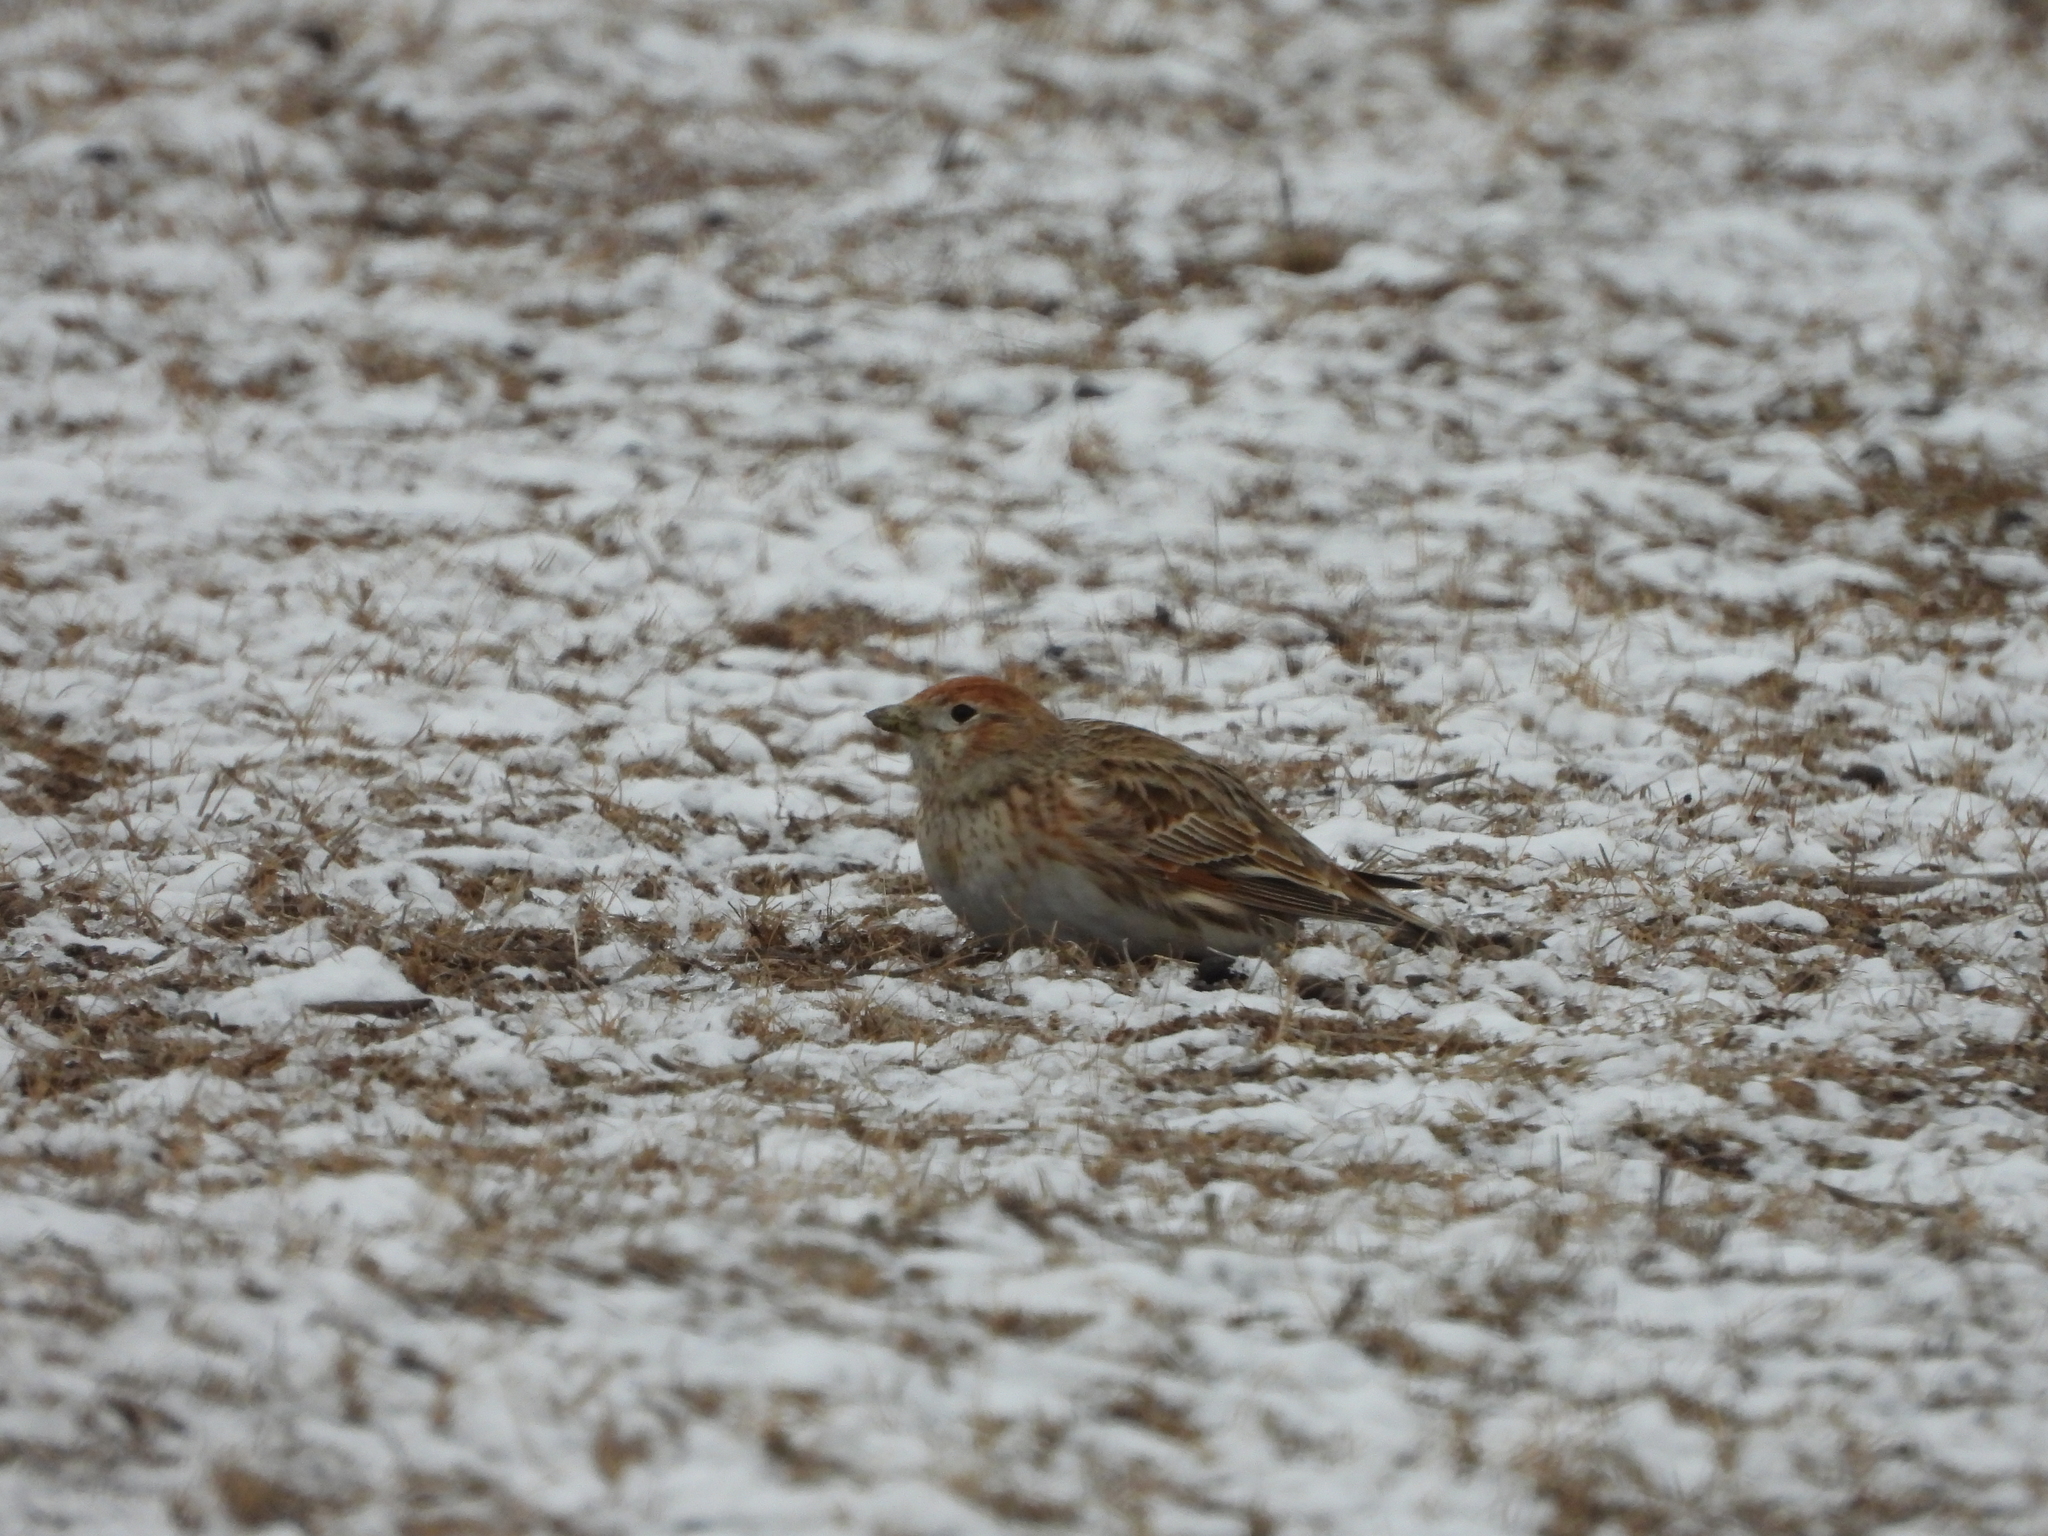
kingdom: Animalia
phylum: Chordata
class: Aves
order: Passeriformes
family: Alaudidae
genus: Melanocorypha
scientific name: Melanocorypha leucoptera
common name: White-winged lark
